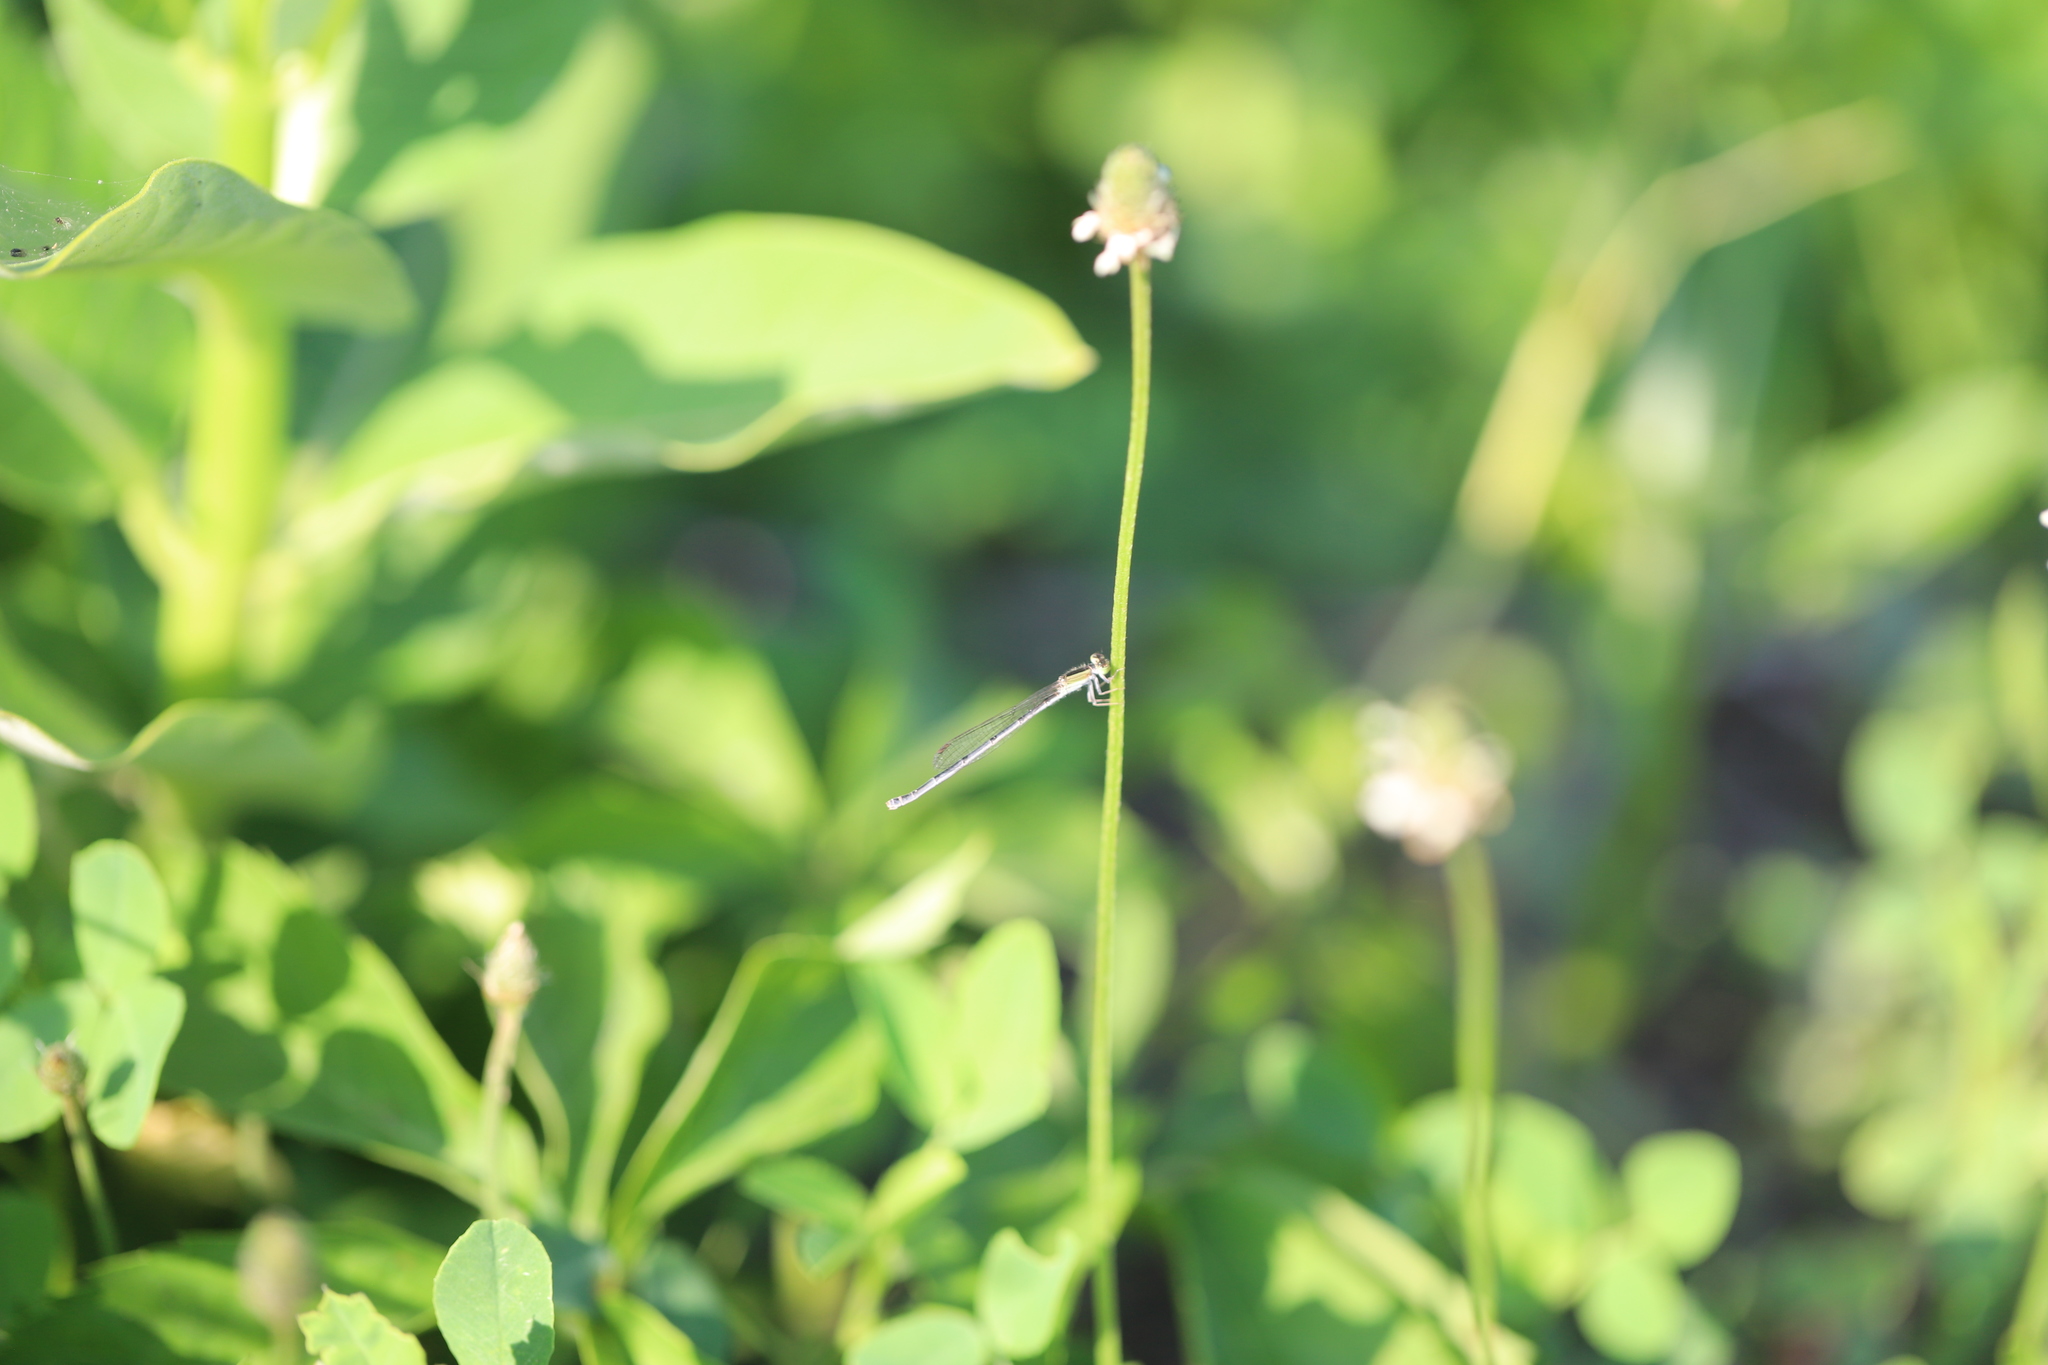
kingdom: Plantae
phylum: Tracheophyta
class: Magnoliopsida
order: Lamiales
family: Plantaginaceae
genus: Plantago
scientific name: Plantago lanceolata
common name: Ribwort plantain
